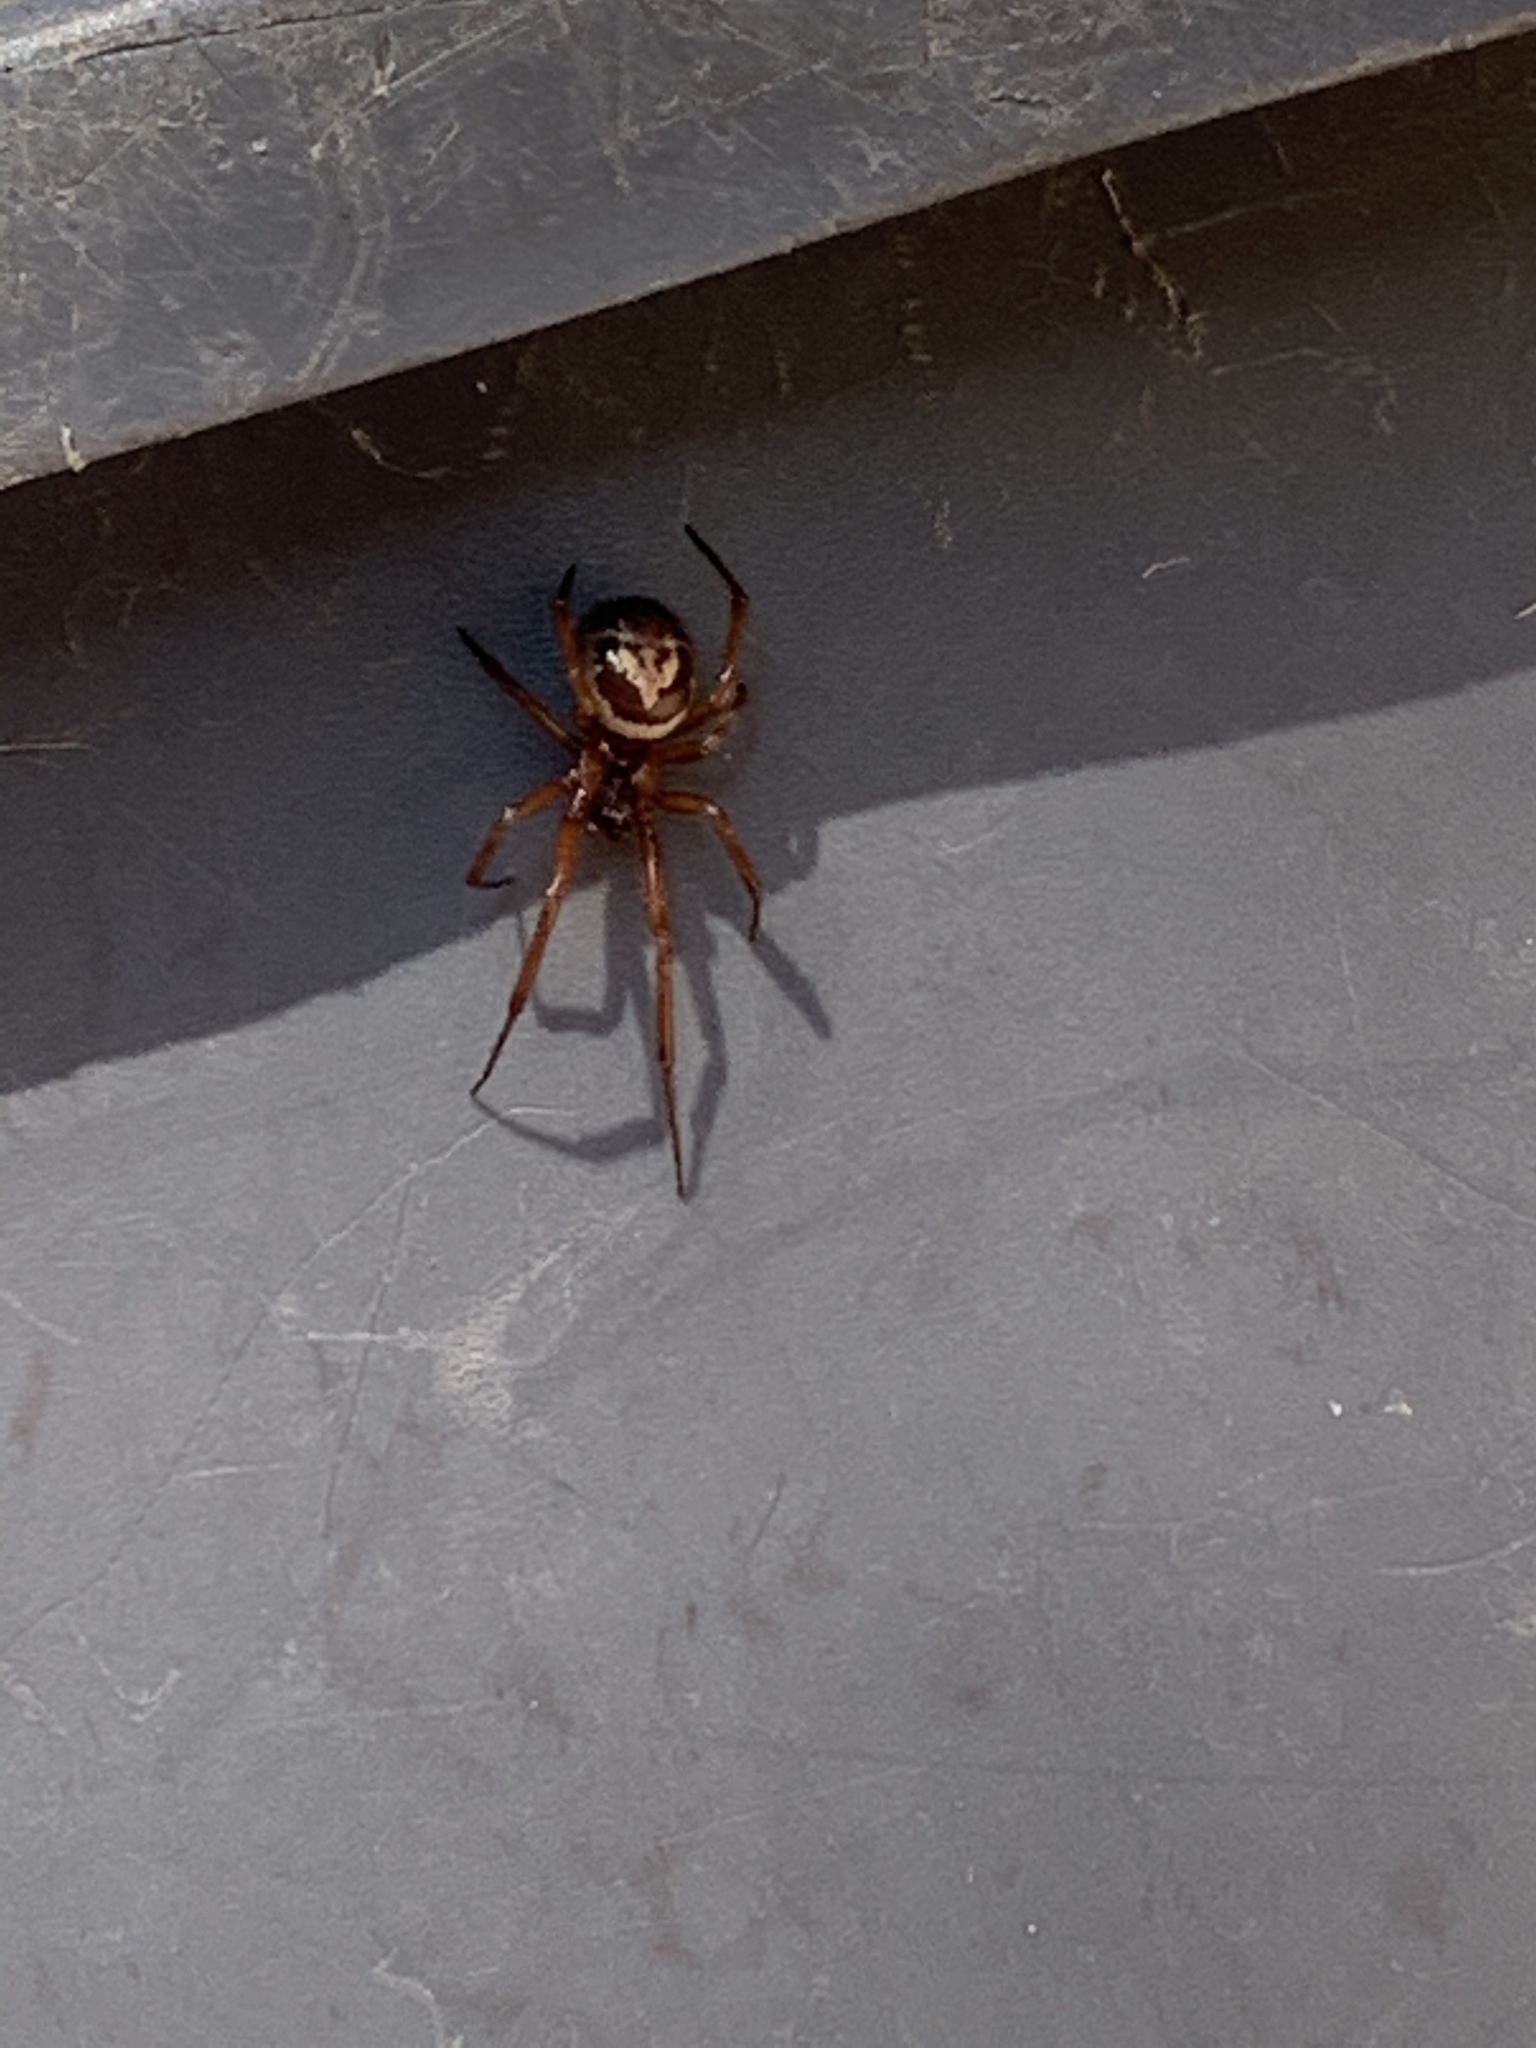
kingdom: Animalia
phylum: Arthropoda
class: Arachnida
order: Araneae
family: Theridiidae
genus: Steatoda
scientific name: Steatoda nobilis
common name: Cobweb weaver
